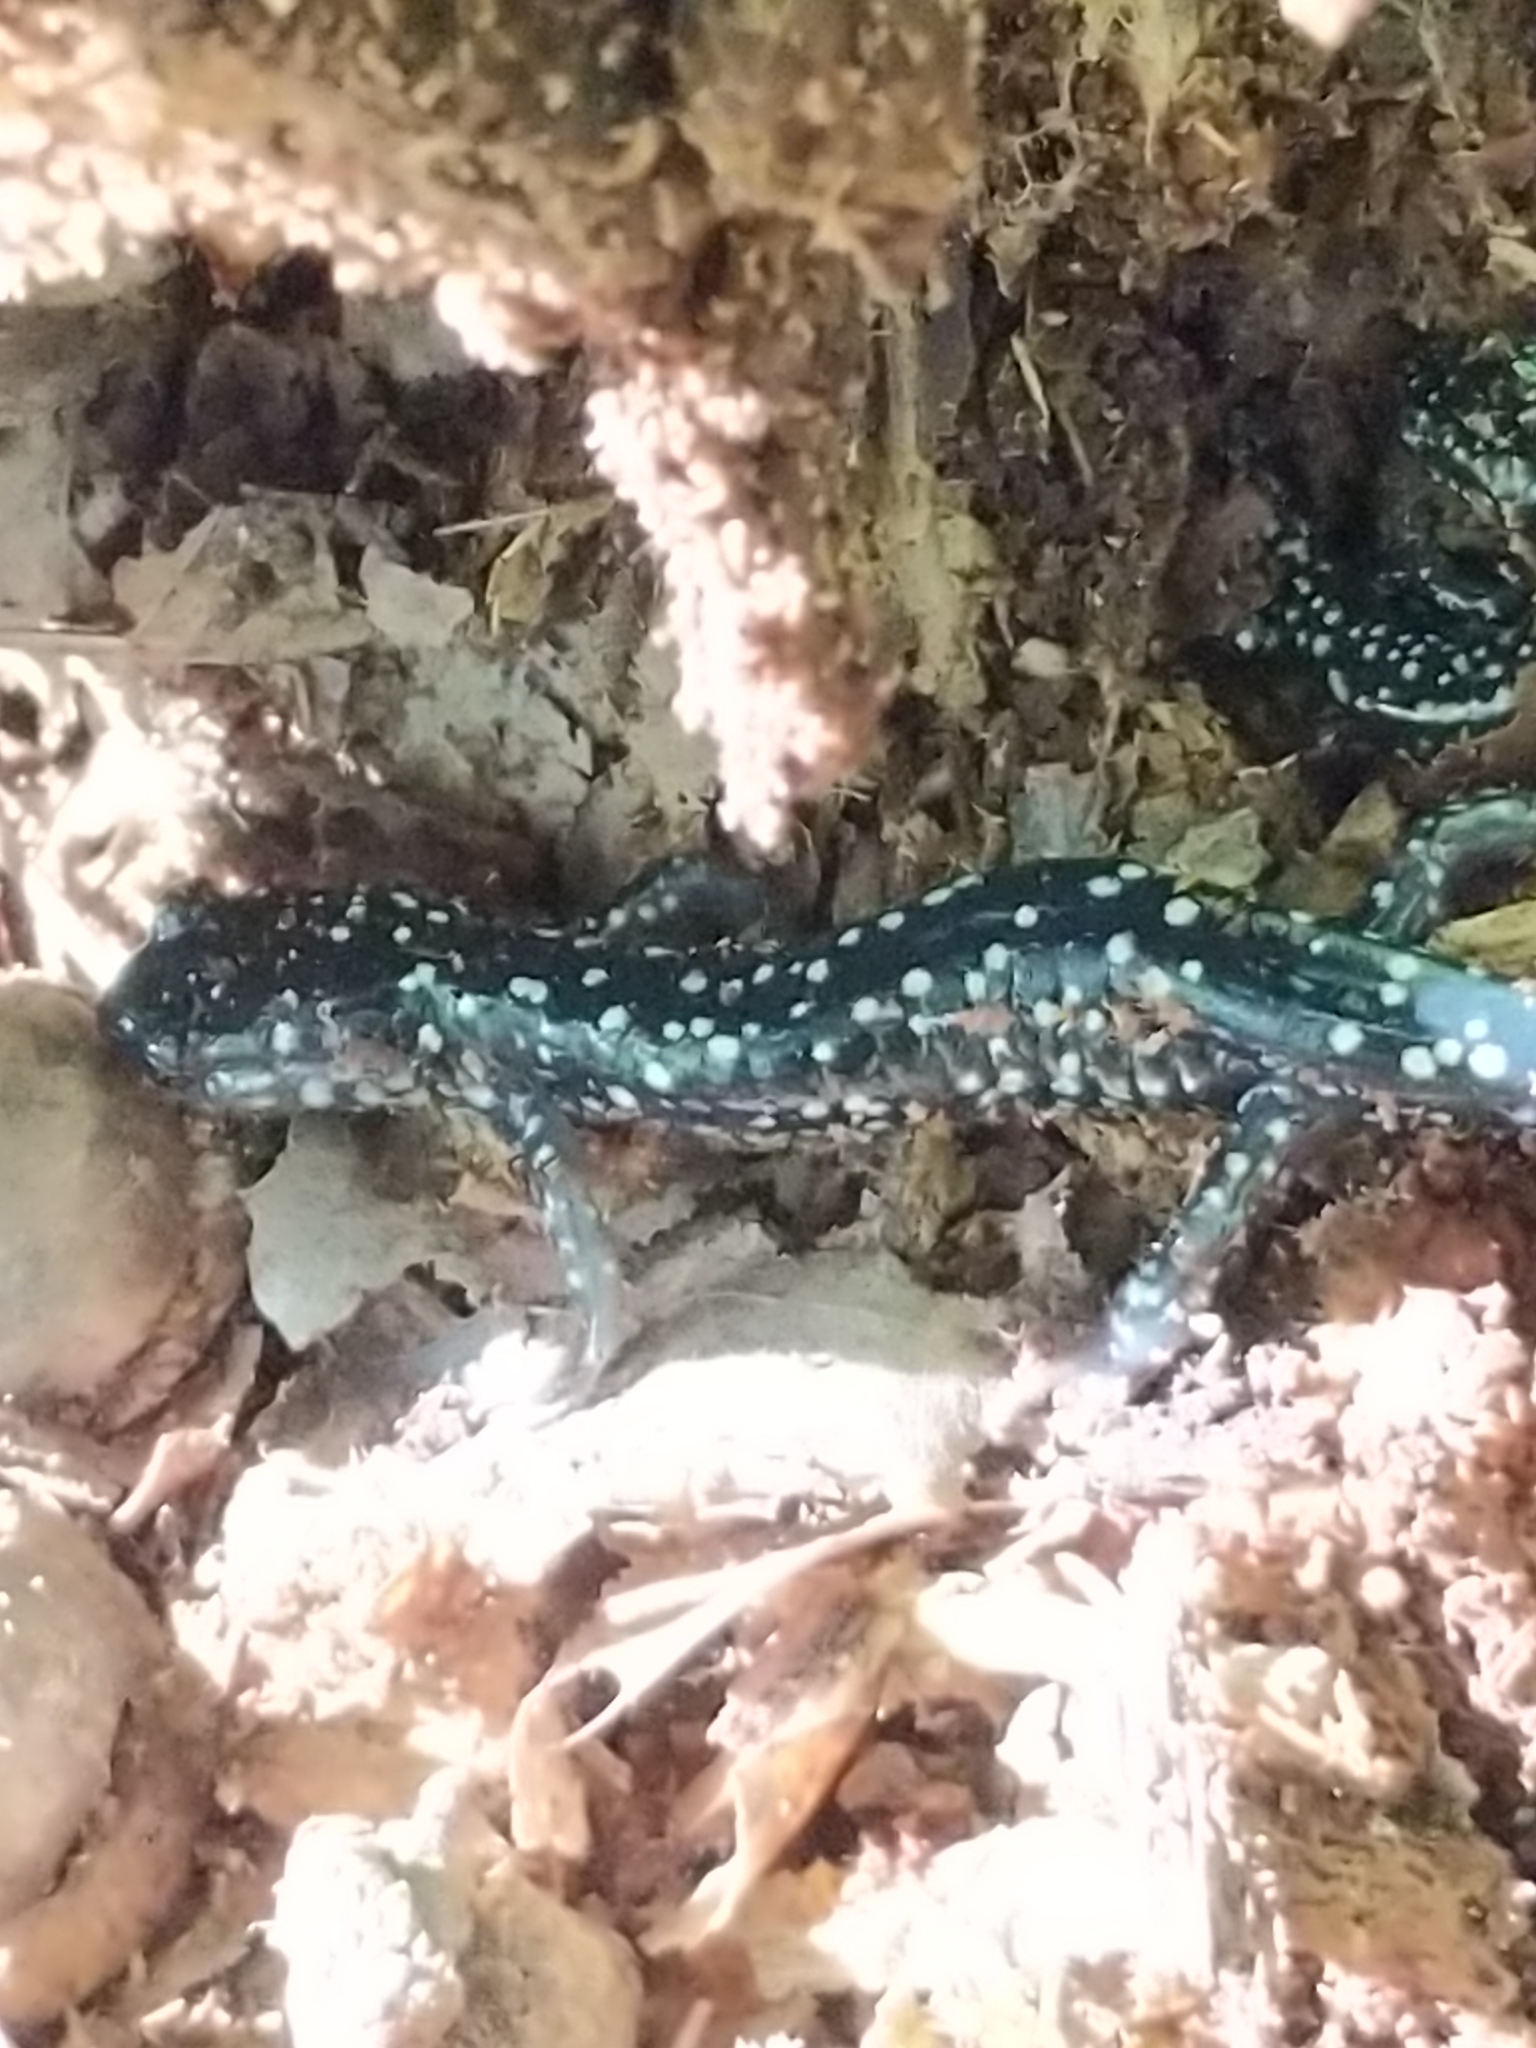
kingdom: Animalia
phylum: Chordata
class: Amphibia
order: Caudata
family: Plethodontidae
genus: Plethodon
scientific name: Plethodon glutinosus
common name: Northern slimy salamander
